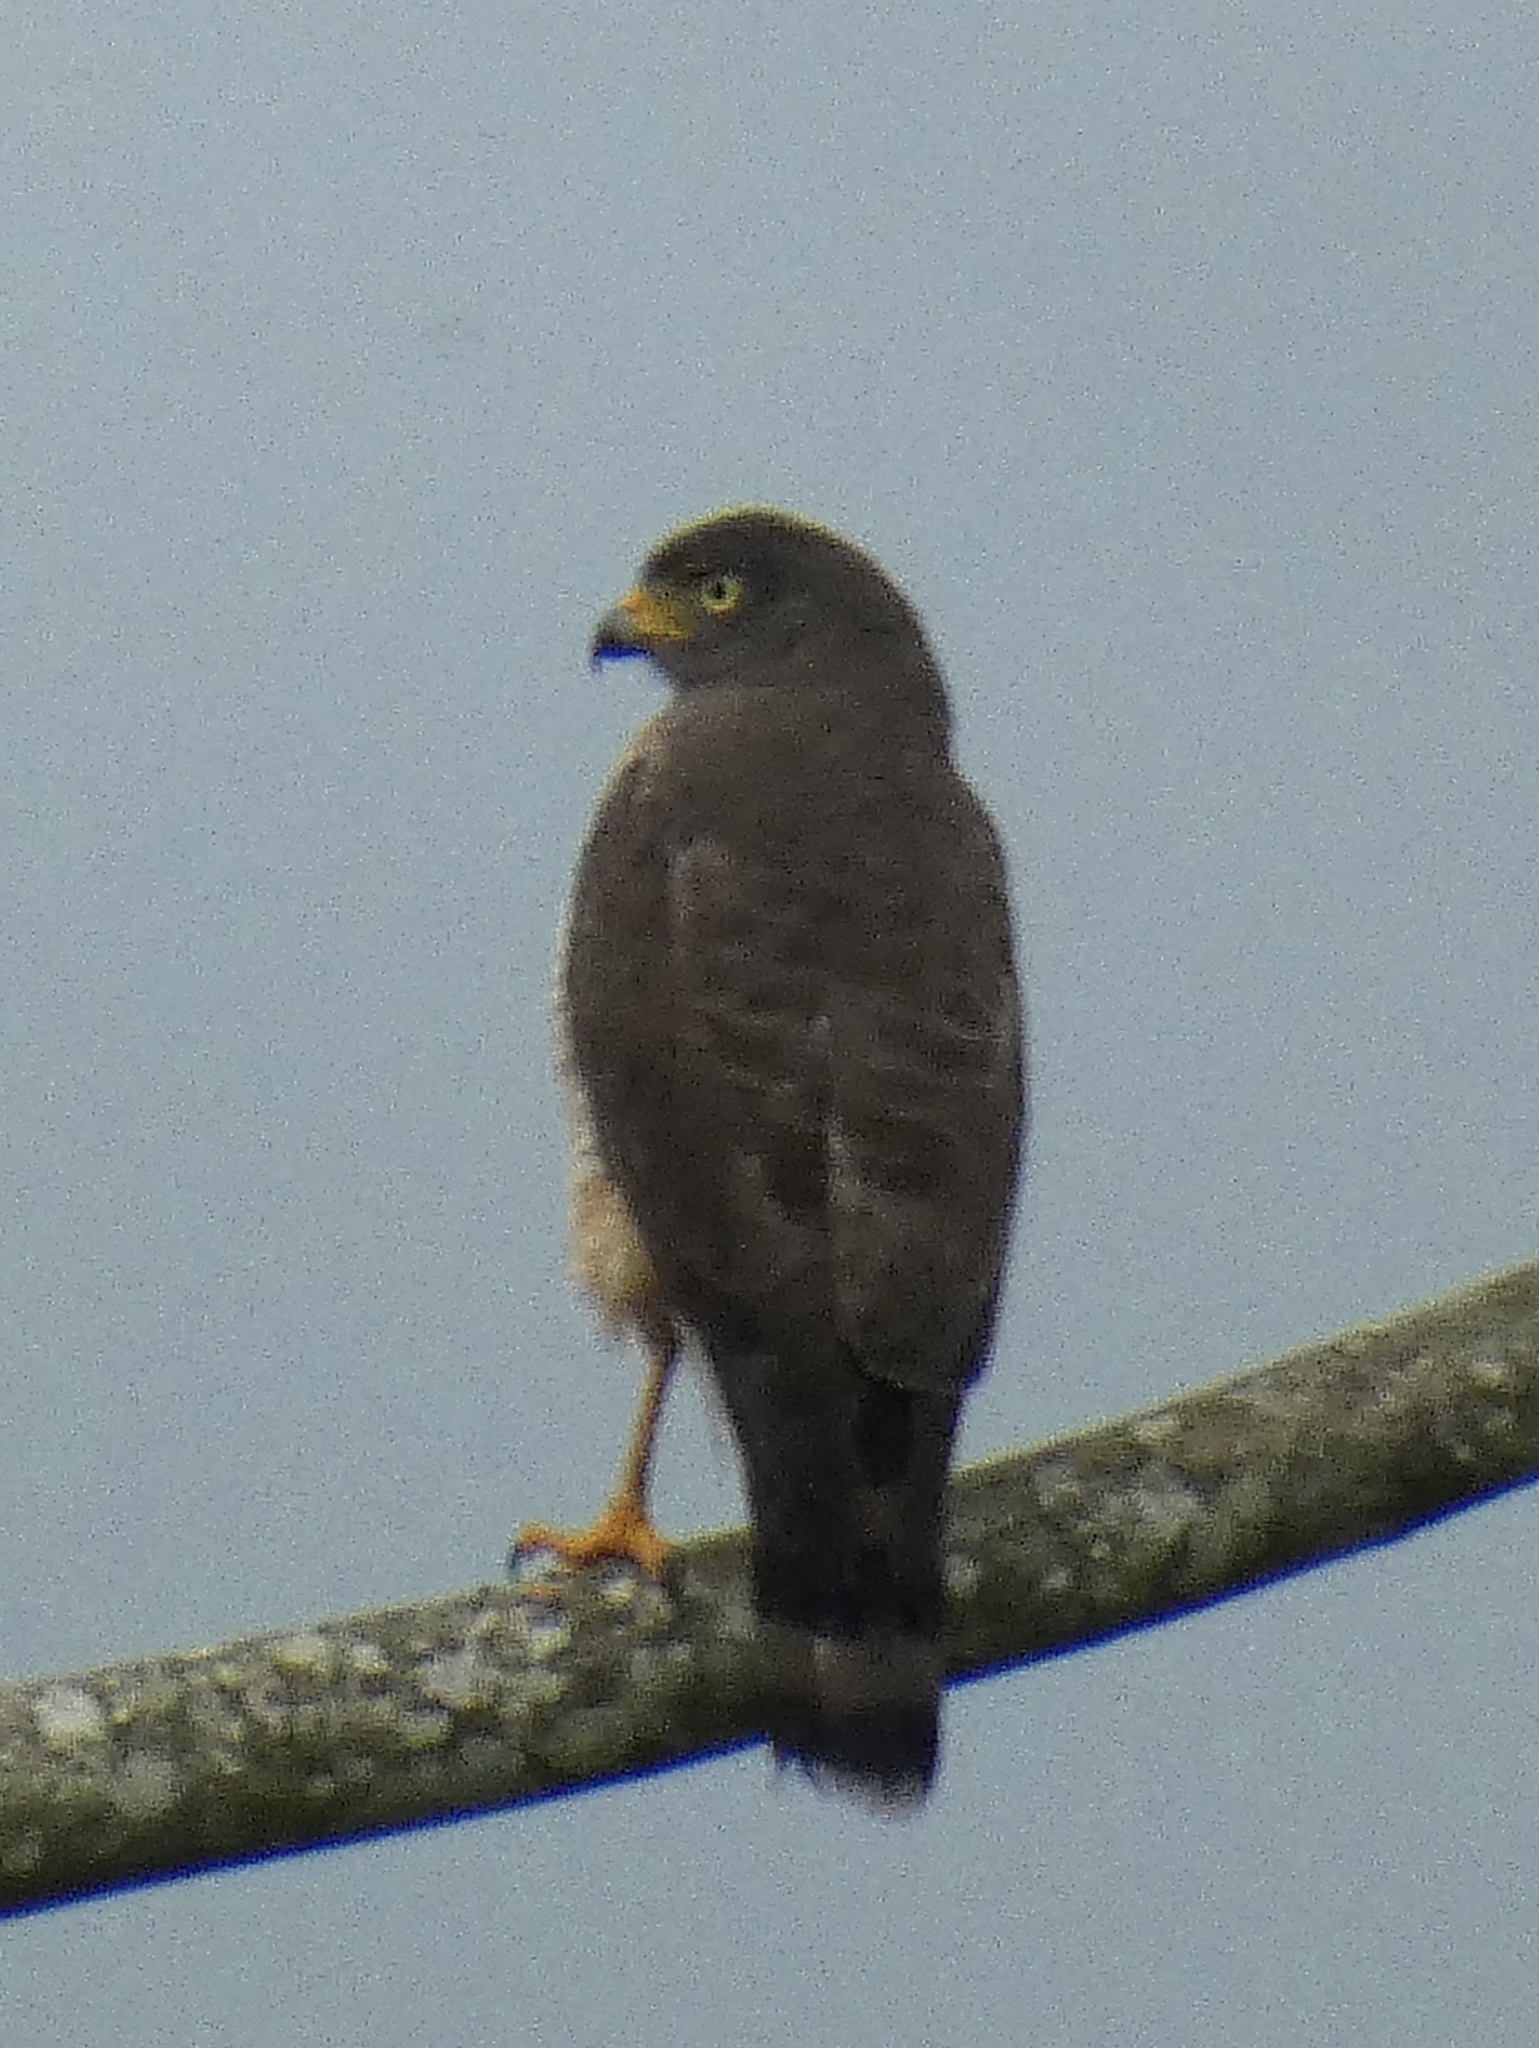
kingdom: Animalia
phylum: Chordata
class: Aves
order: Accipitriformes
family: Accipitridae
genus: Rupornis
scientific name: Rupornis magnirostris
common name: Roadside hawk
